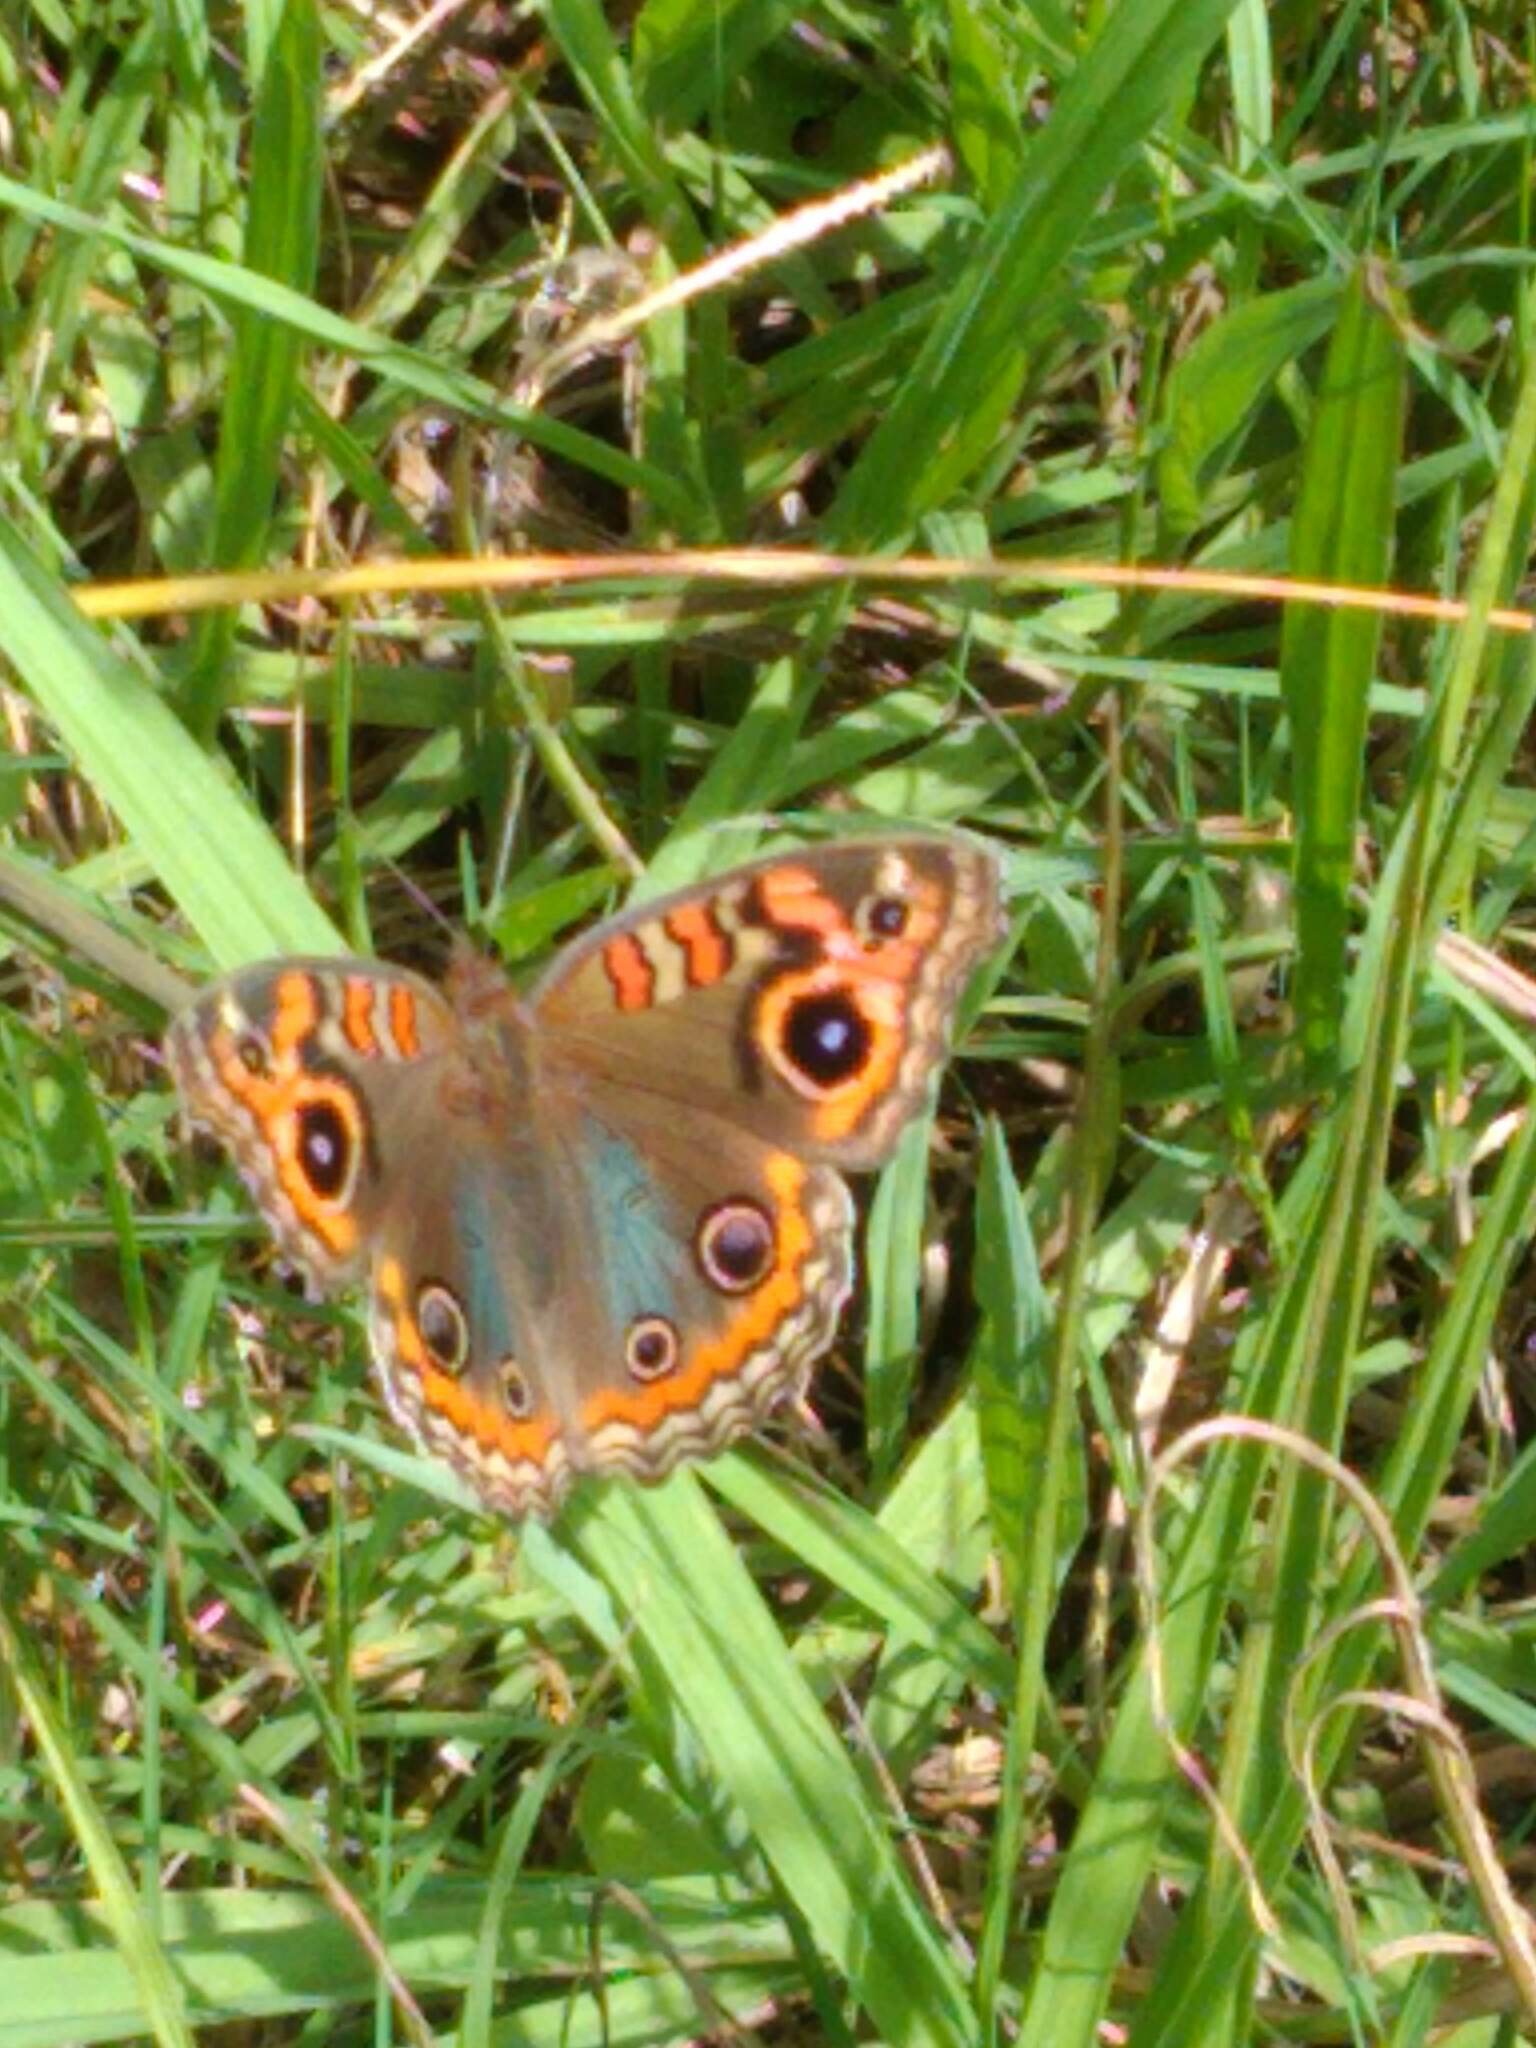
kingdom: Animalia
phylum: Arthropoda
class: Insecta
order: Lepidoptera
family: Nymphalidae
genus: Junonia
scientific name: Junonia lavinia
